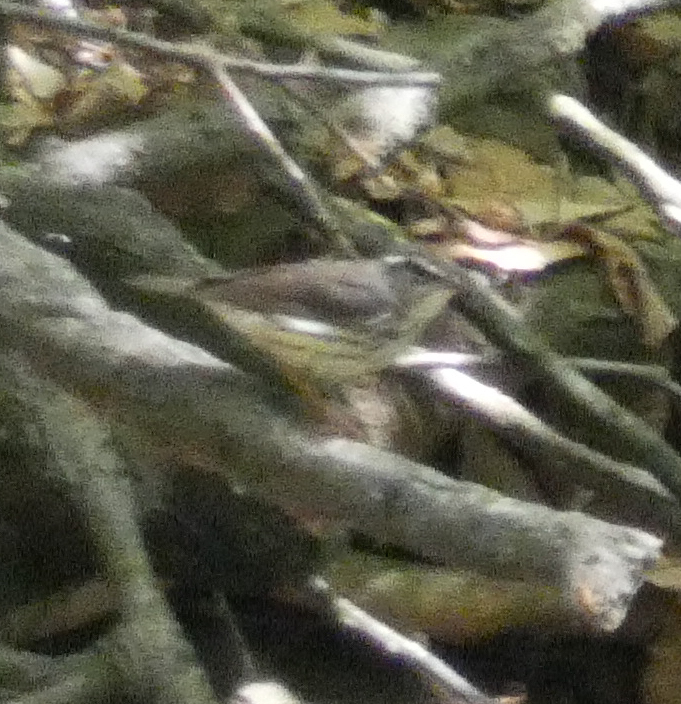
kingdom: Animalia
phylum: Chordata
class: Aves
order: Passeriformes
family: Parulidae
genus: Parkesia
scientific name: Parkesia motacilla
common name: Louisiana waterthrush
